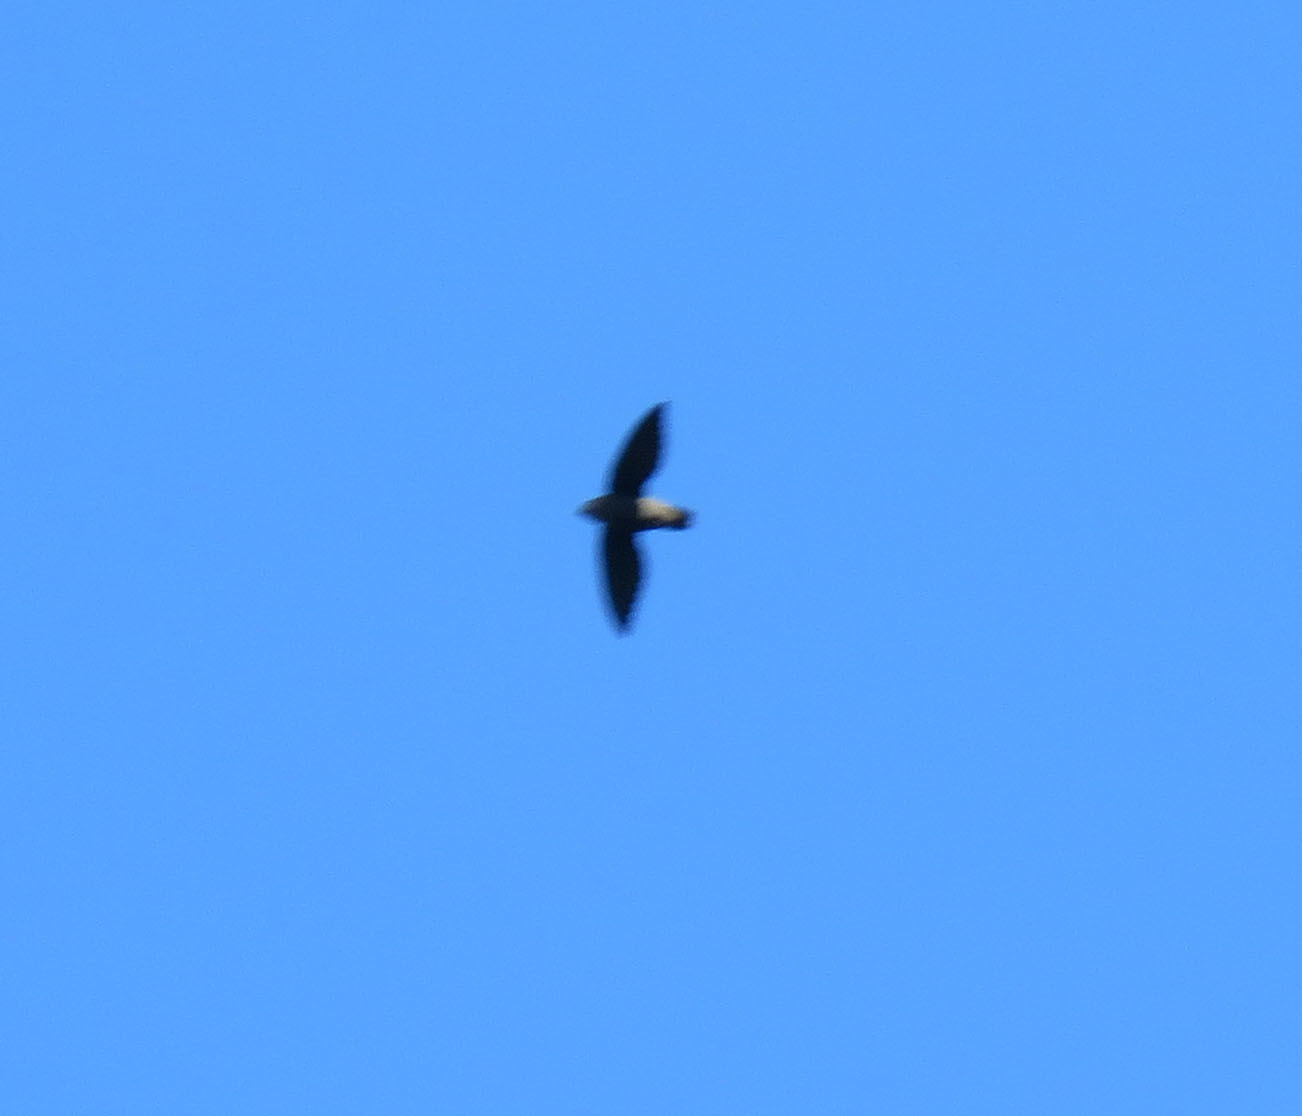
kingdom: Animalia
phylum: Chordata
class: Aves
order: Apodiformes
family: Apodidae
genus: Chaetura
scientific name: Chaetura egregia
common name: Pale-rumped swift
